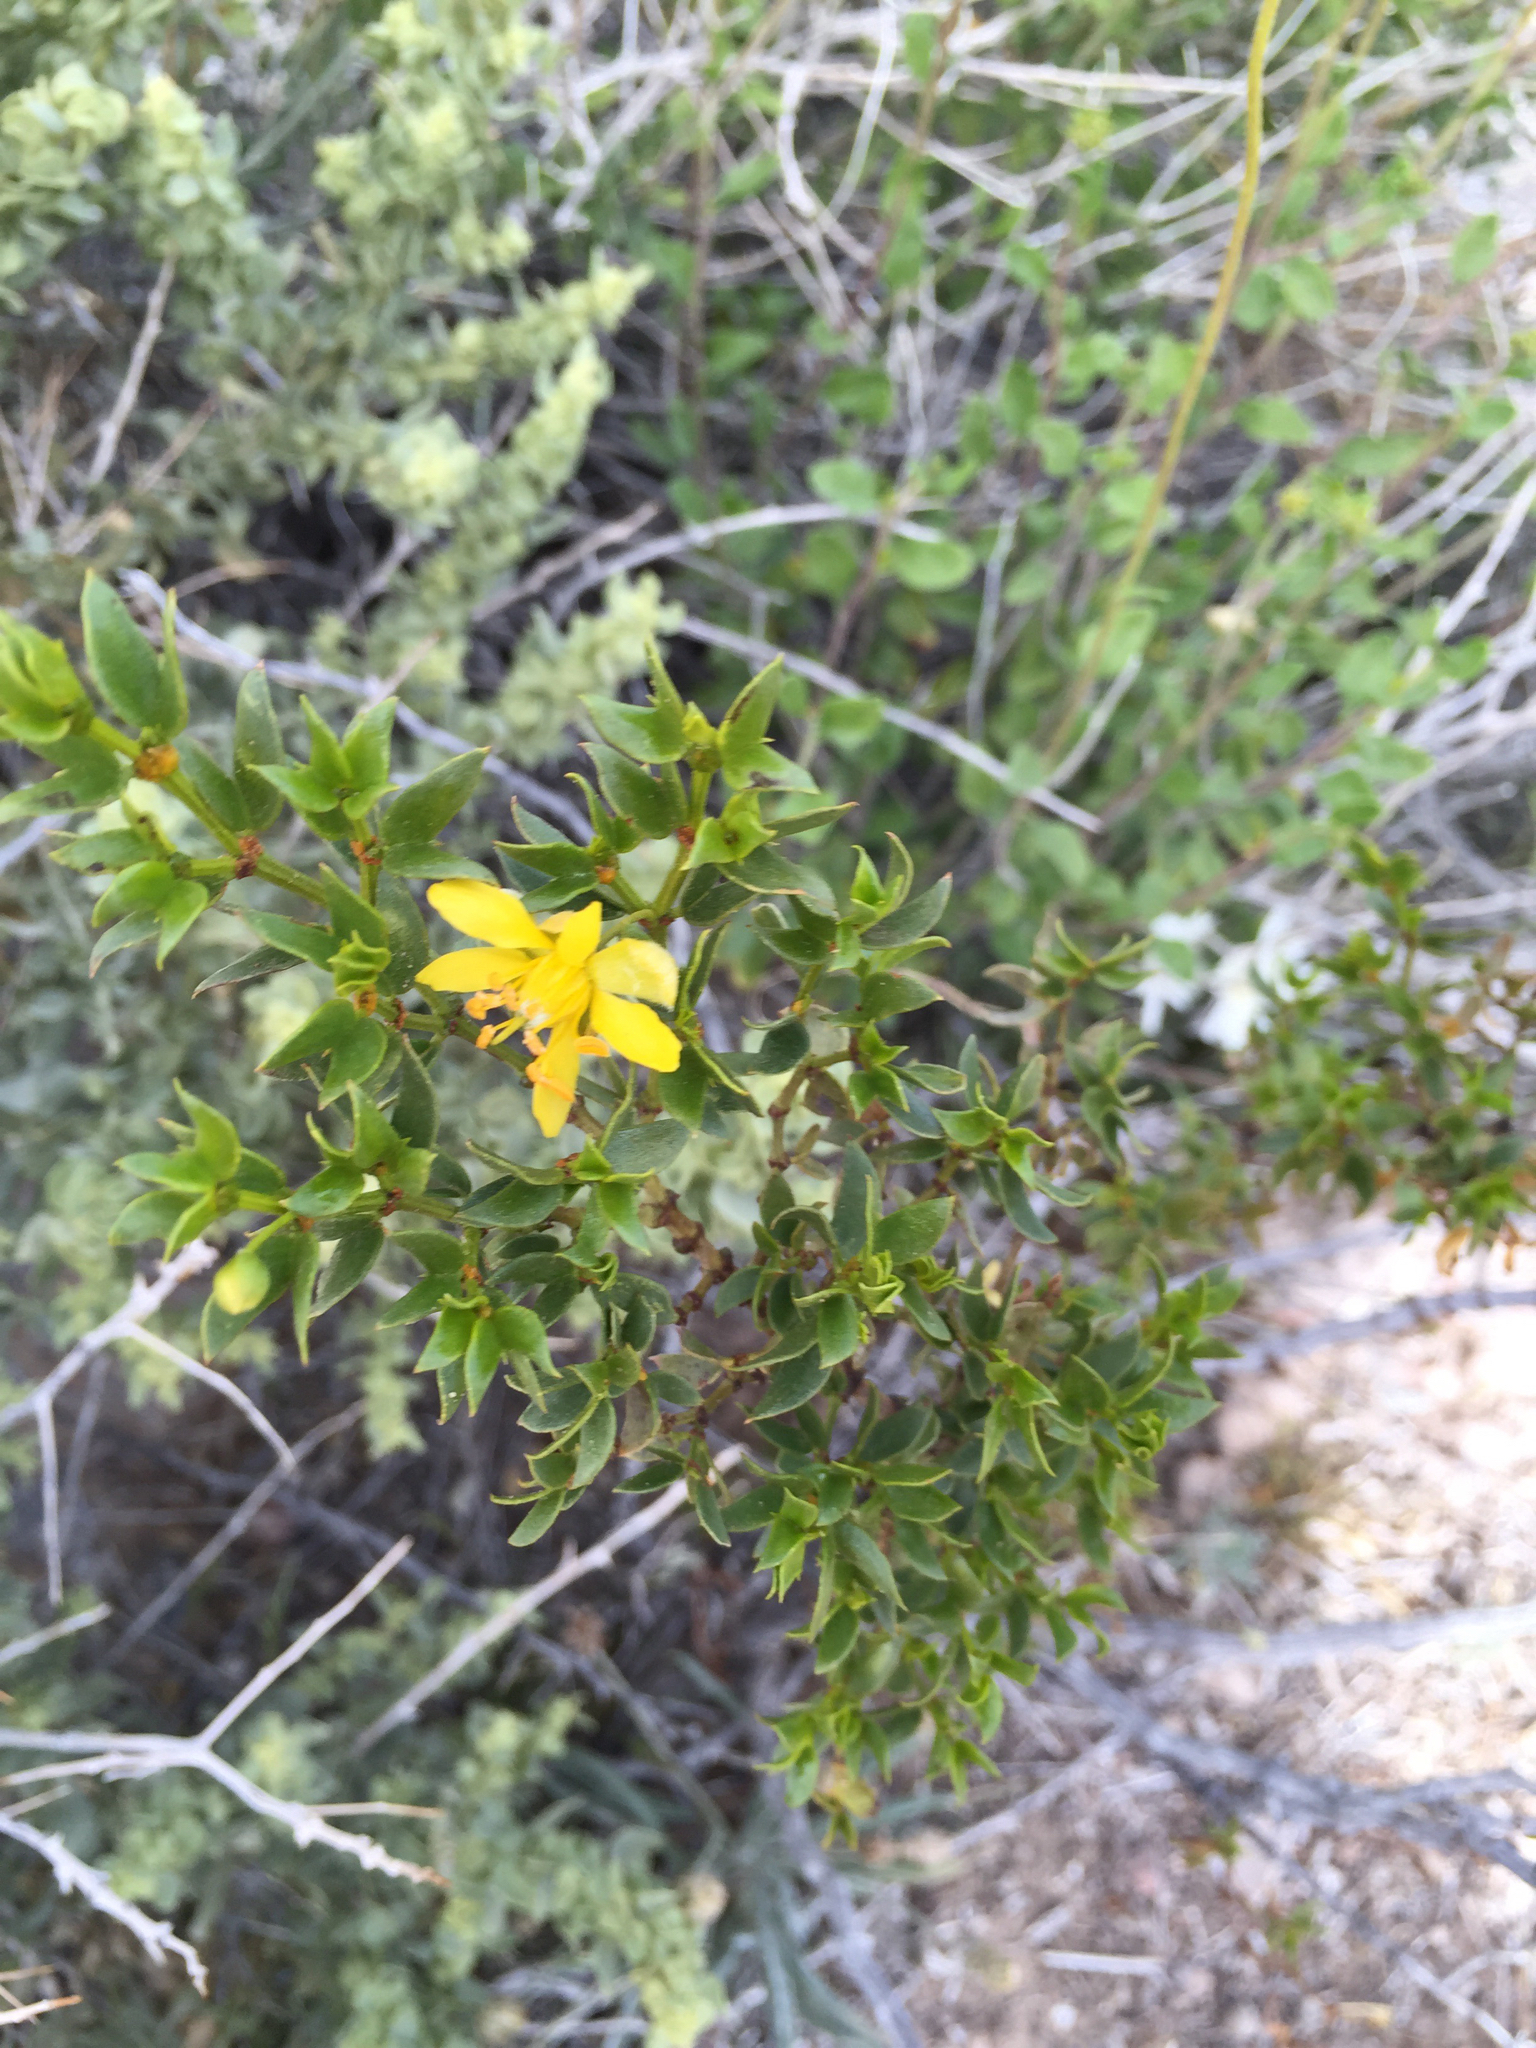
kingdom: Plantae
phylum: Tracheophyta
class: Magnoliopsida
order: Zygophyllales
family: Zygophyllaceae
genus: Larrea
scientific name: Larrea tridentata
